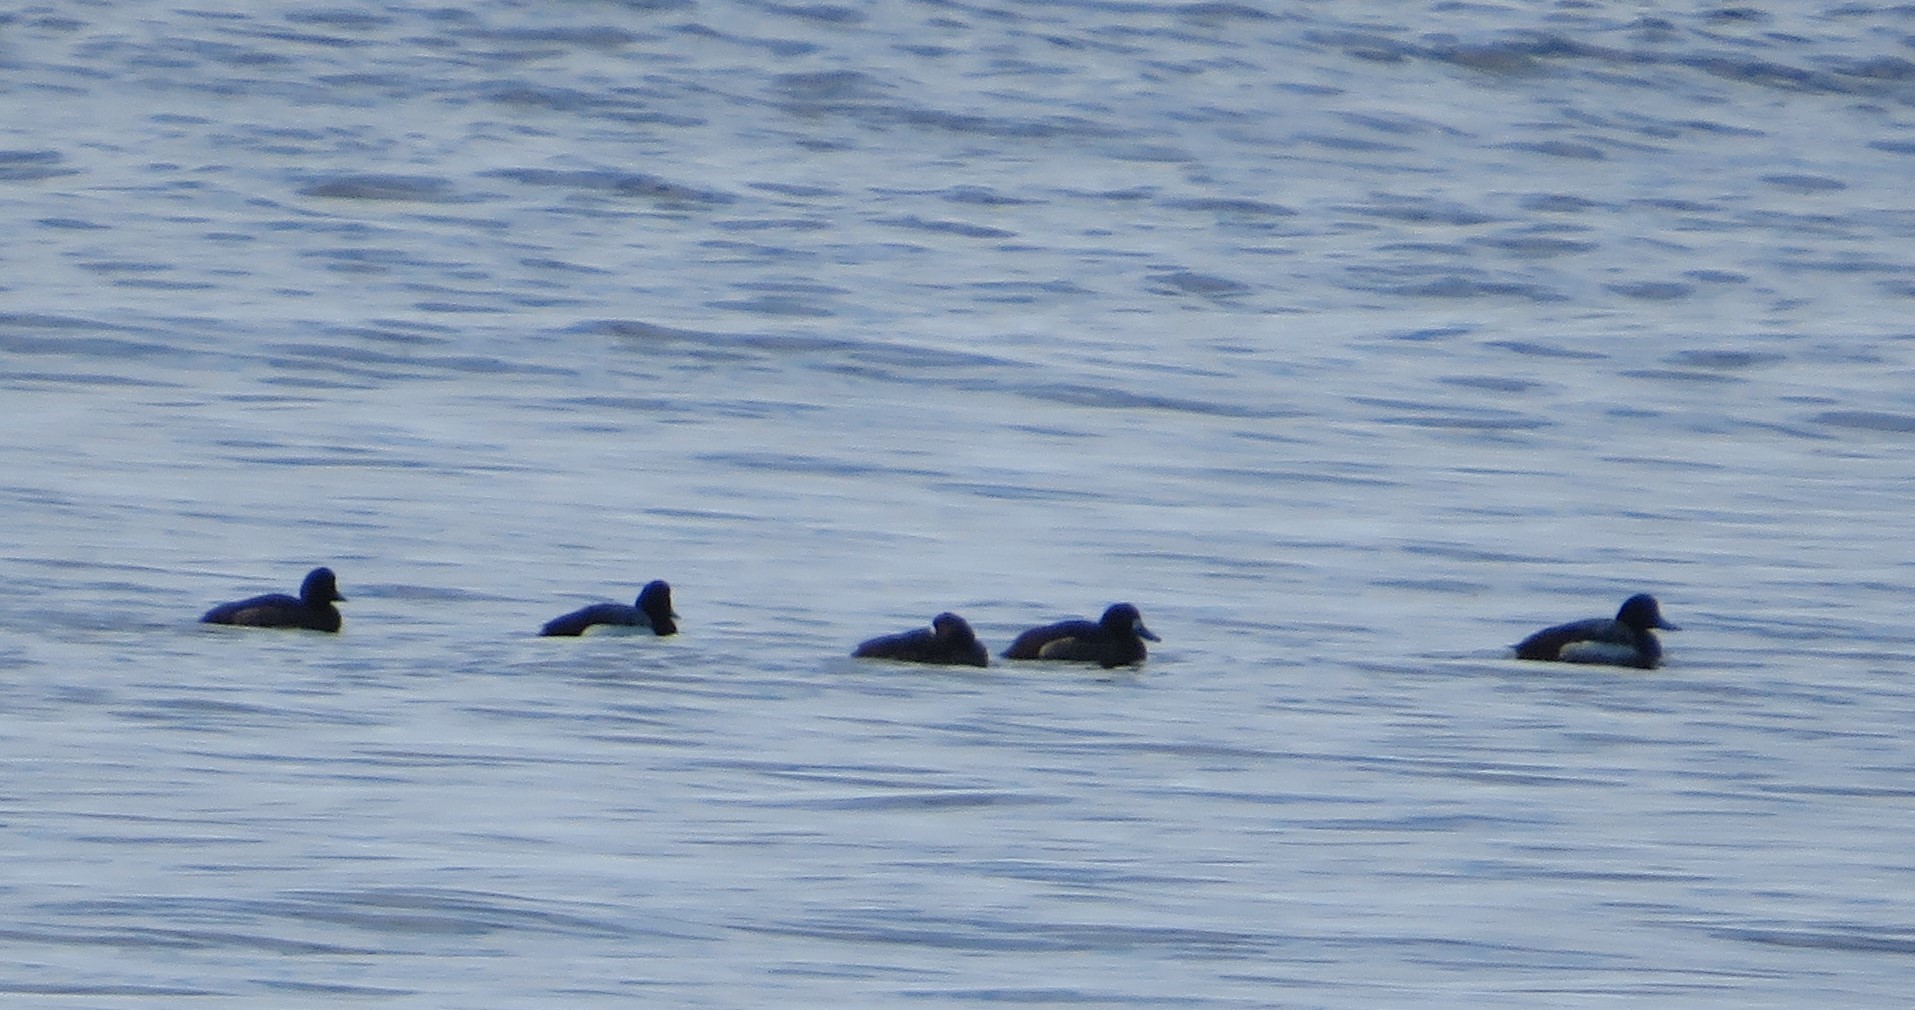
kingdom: Animalia
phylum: Chordata
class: Aves
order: Anseriformes
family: Anatidae
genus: Aythya
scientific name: Aythya marila
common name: Greater scaup
